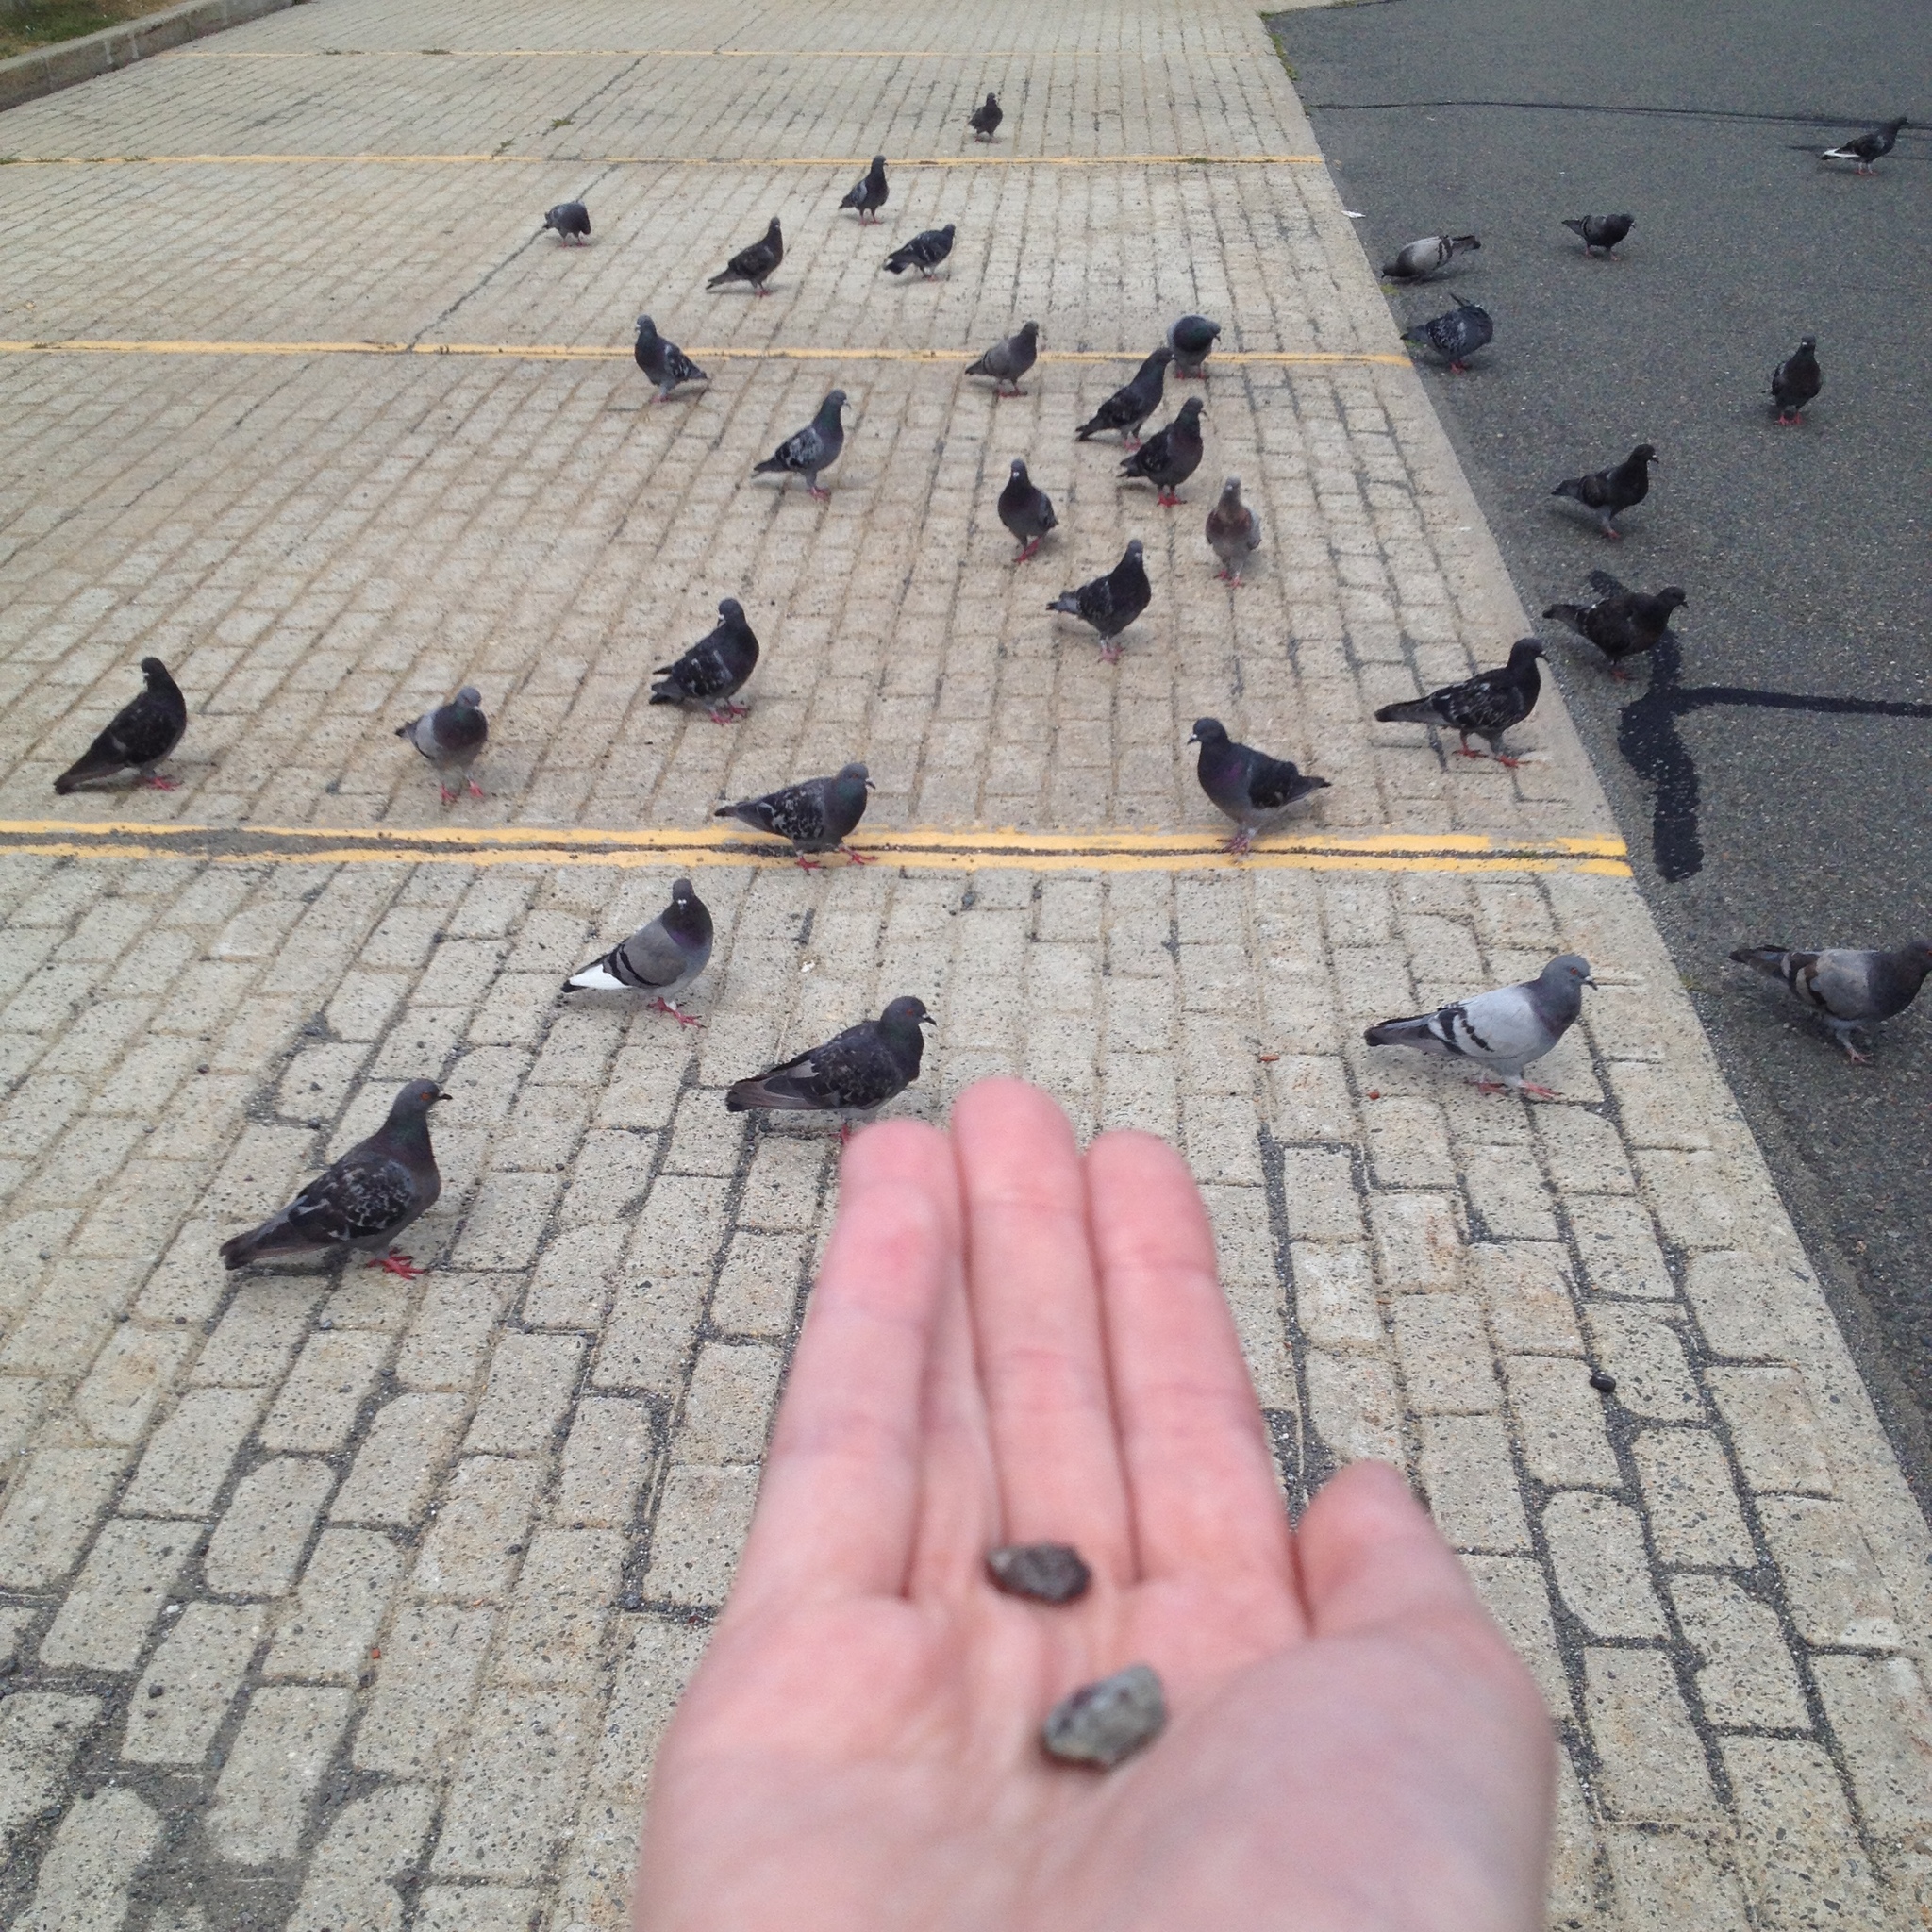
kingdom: Animalia
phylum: Chordata
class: Aves
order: Columbiformes
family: Columbidae
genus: Columba
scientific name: Columba livia
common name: Rock pigeon
